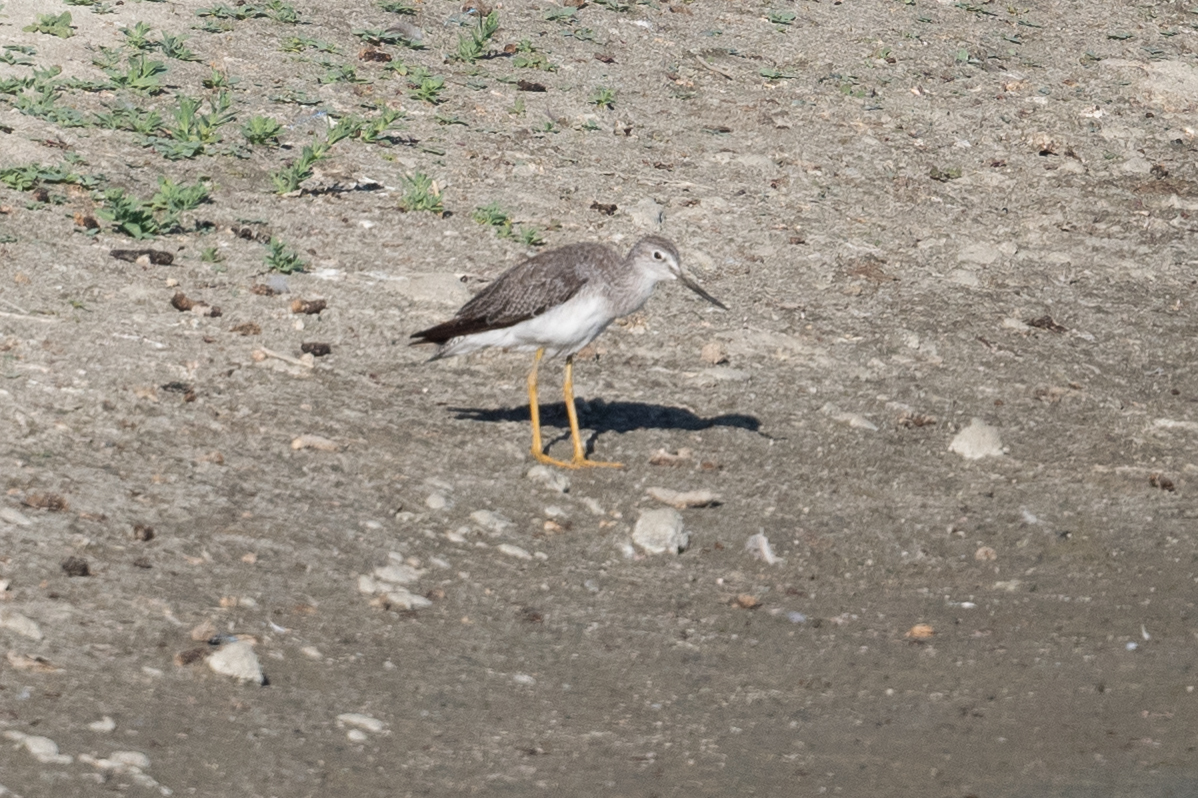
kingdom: Animalia
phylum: Chordata
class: Aves
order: Charadriiformes
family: Scolopacidae
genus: Tringa
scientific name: Tringa melanoleuca
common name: Greater yellowlegs
